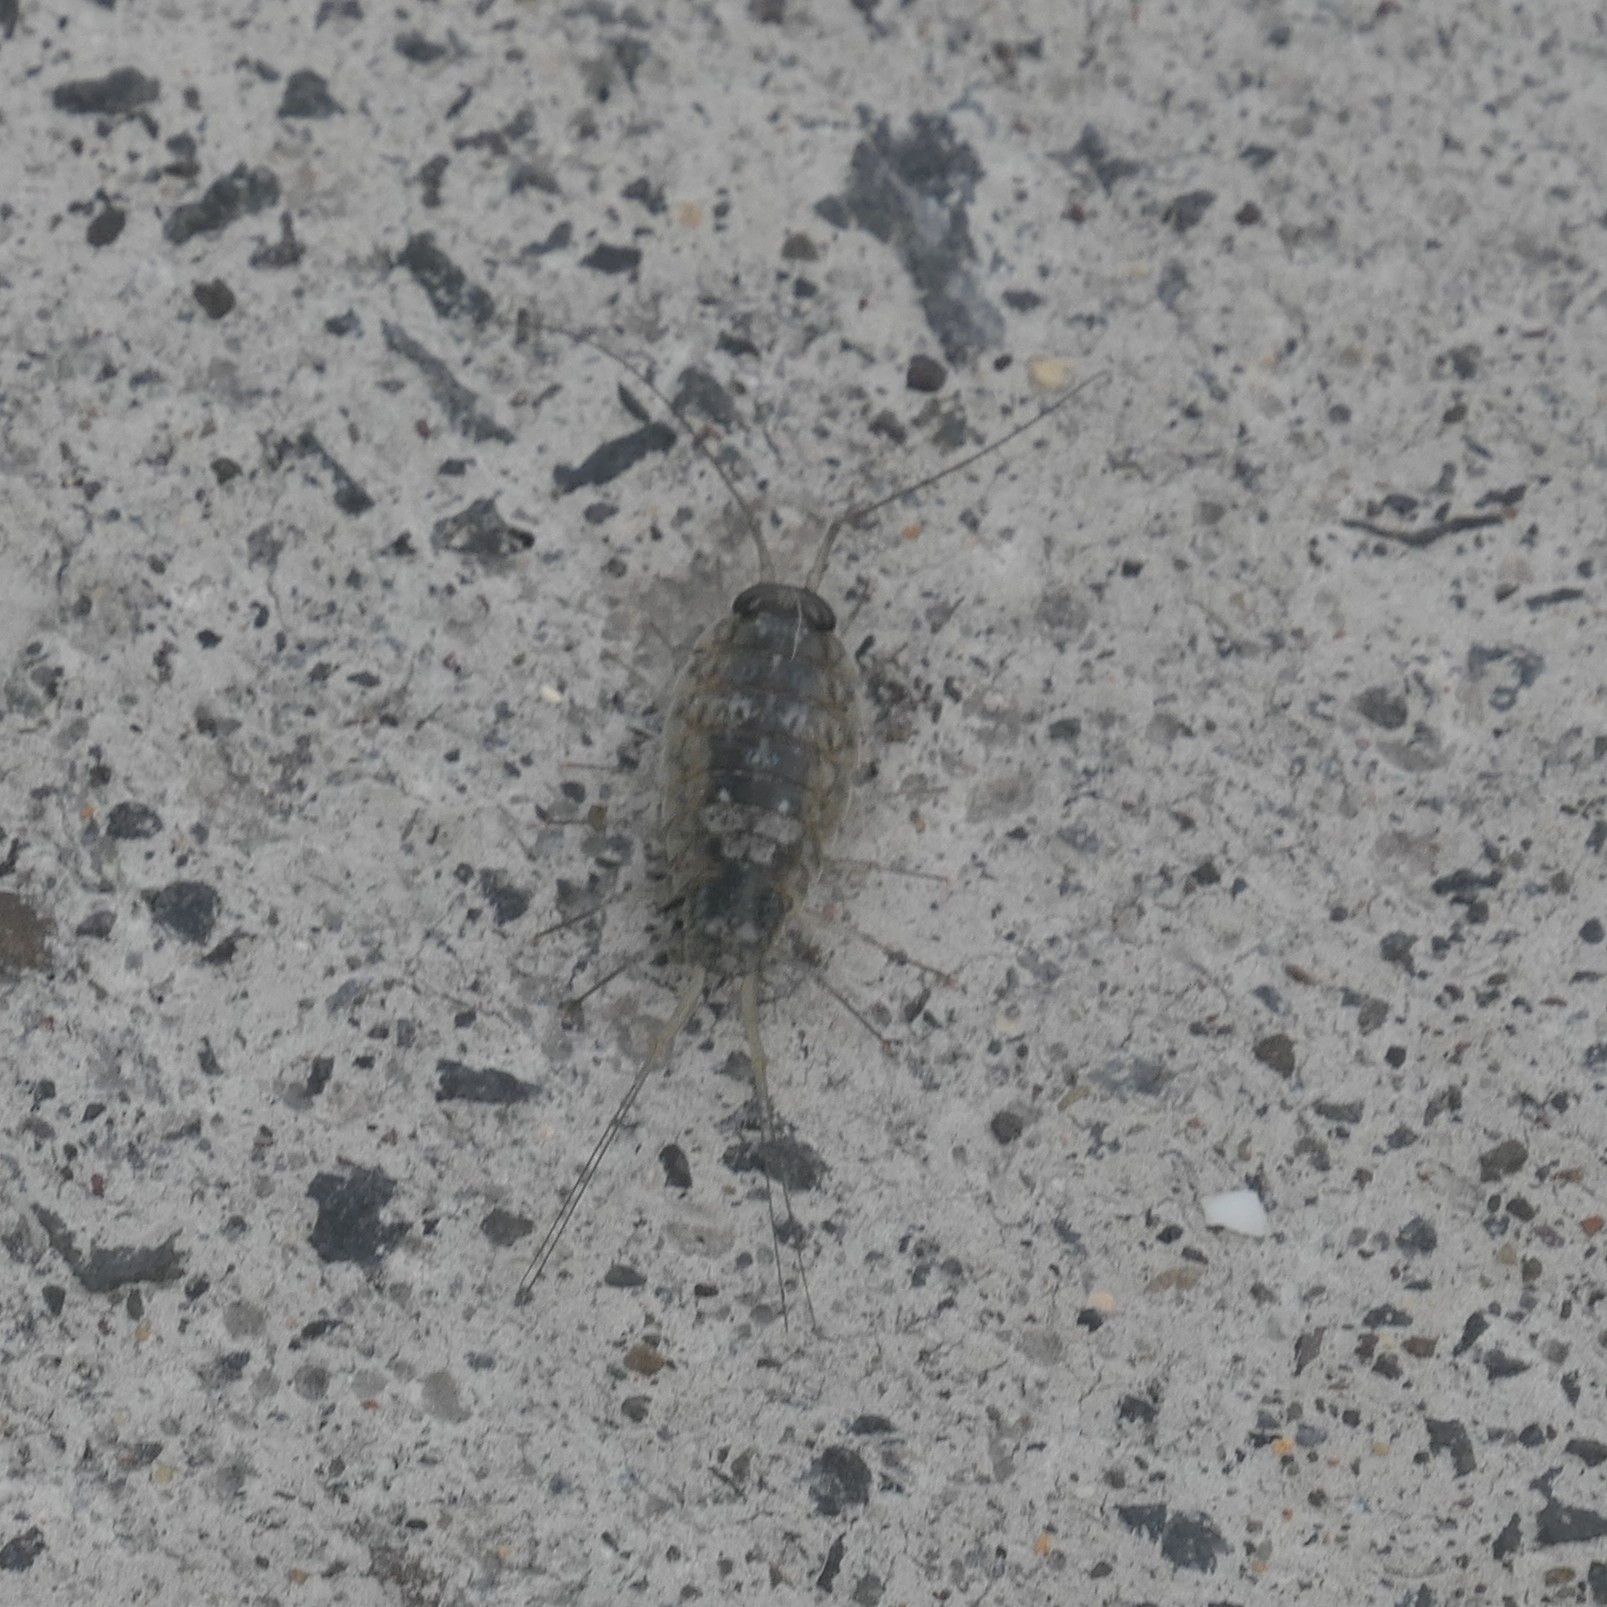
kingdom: Animalia
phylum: Arthropoda
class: Malacostraca
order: Isopoda
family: Ligiidae
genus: Ligia
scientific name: Ligia italica
